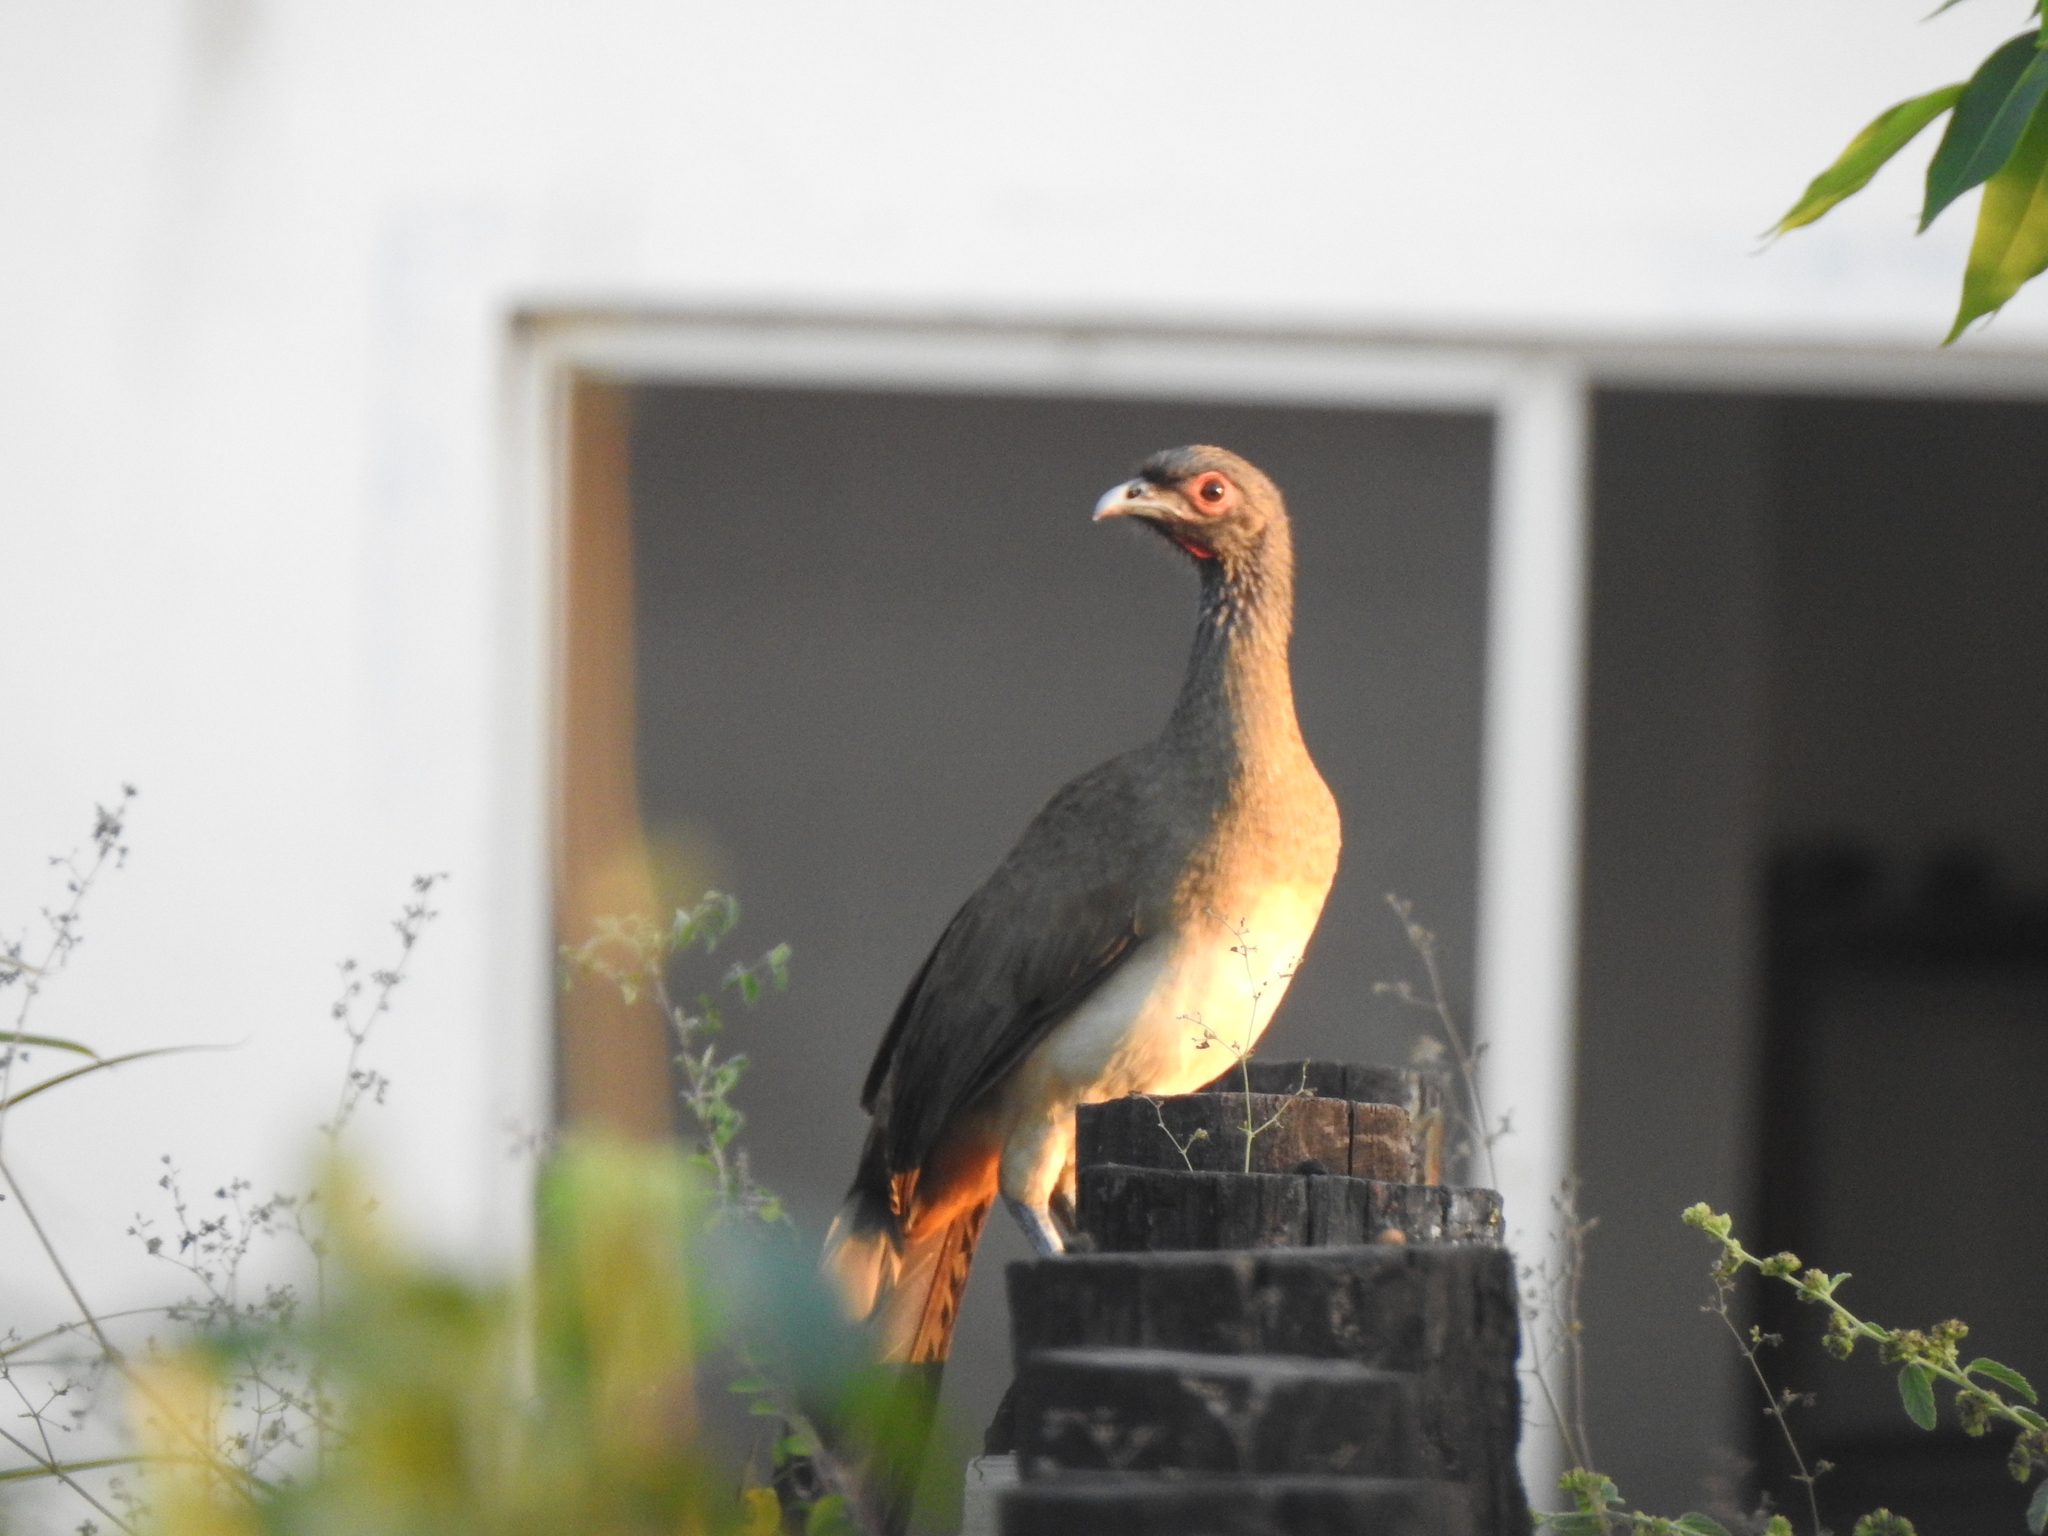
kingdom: Animalia
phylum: Chordata
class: Aves
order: Galliformes
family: Cracidae
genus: Ortalis
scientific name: Ortalis poliocephala
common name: West mexican chachalaca
